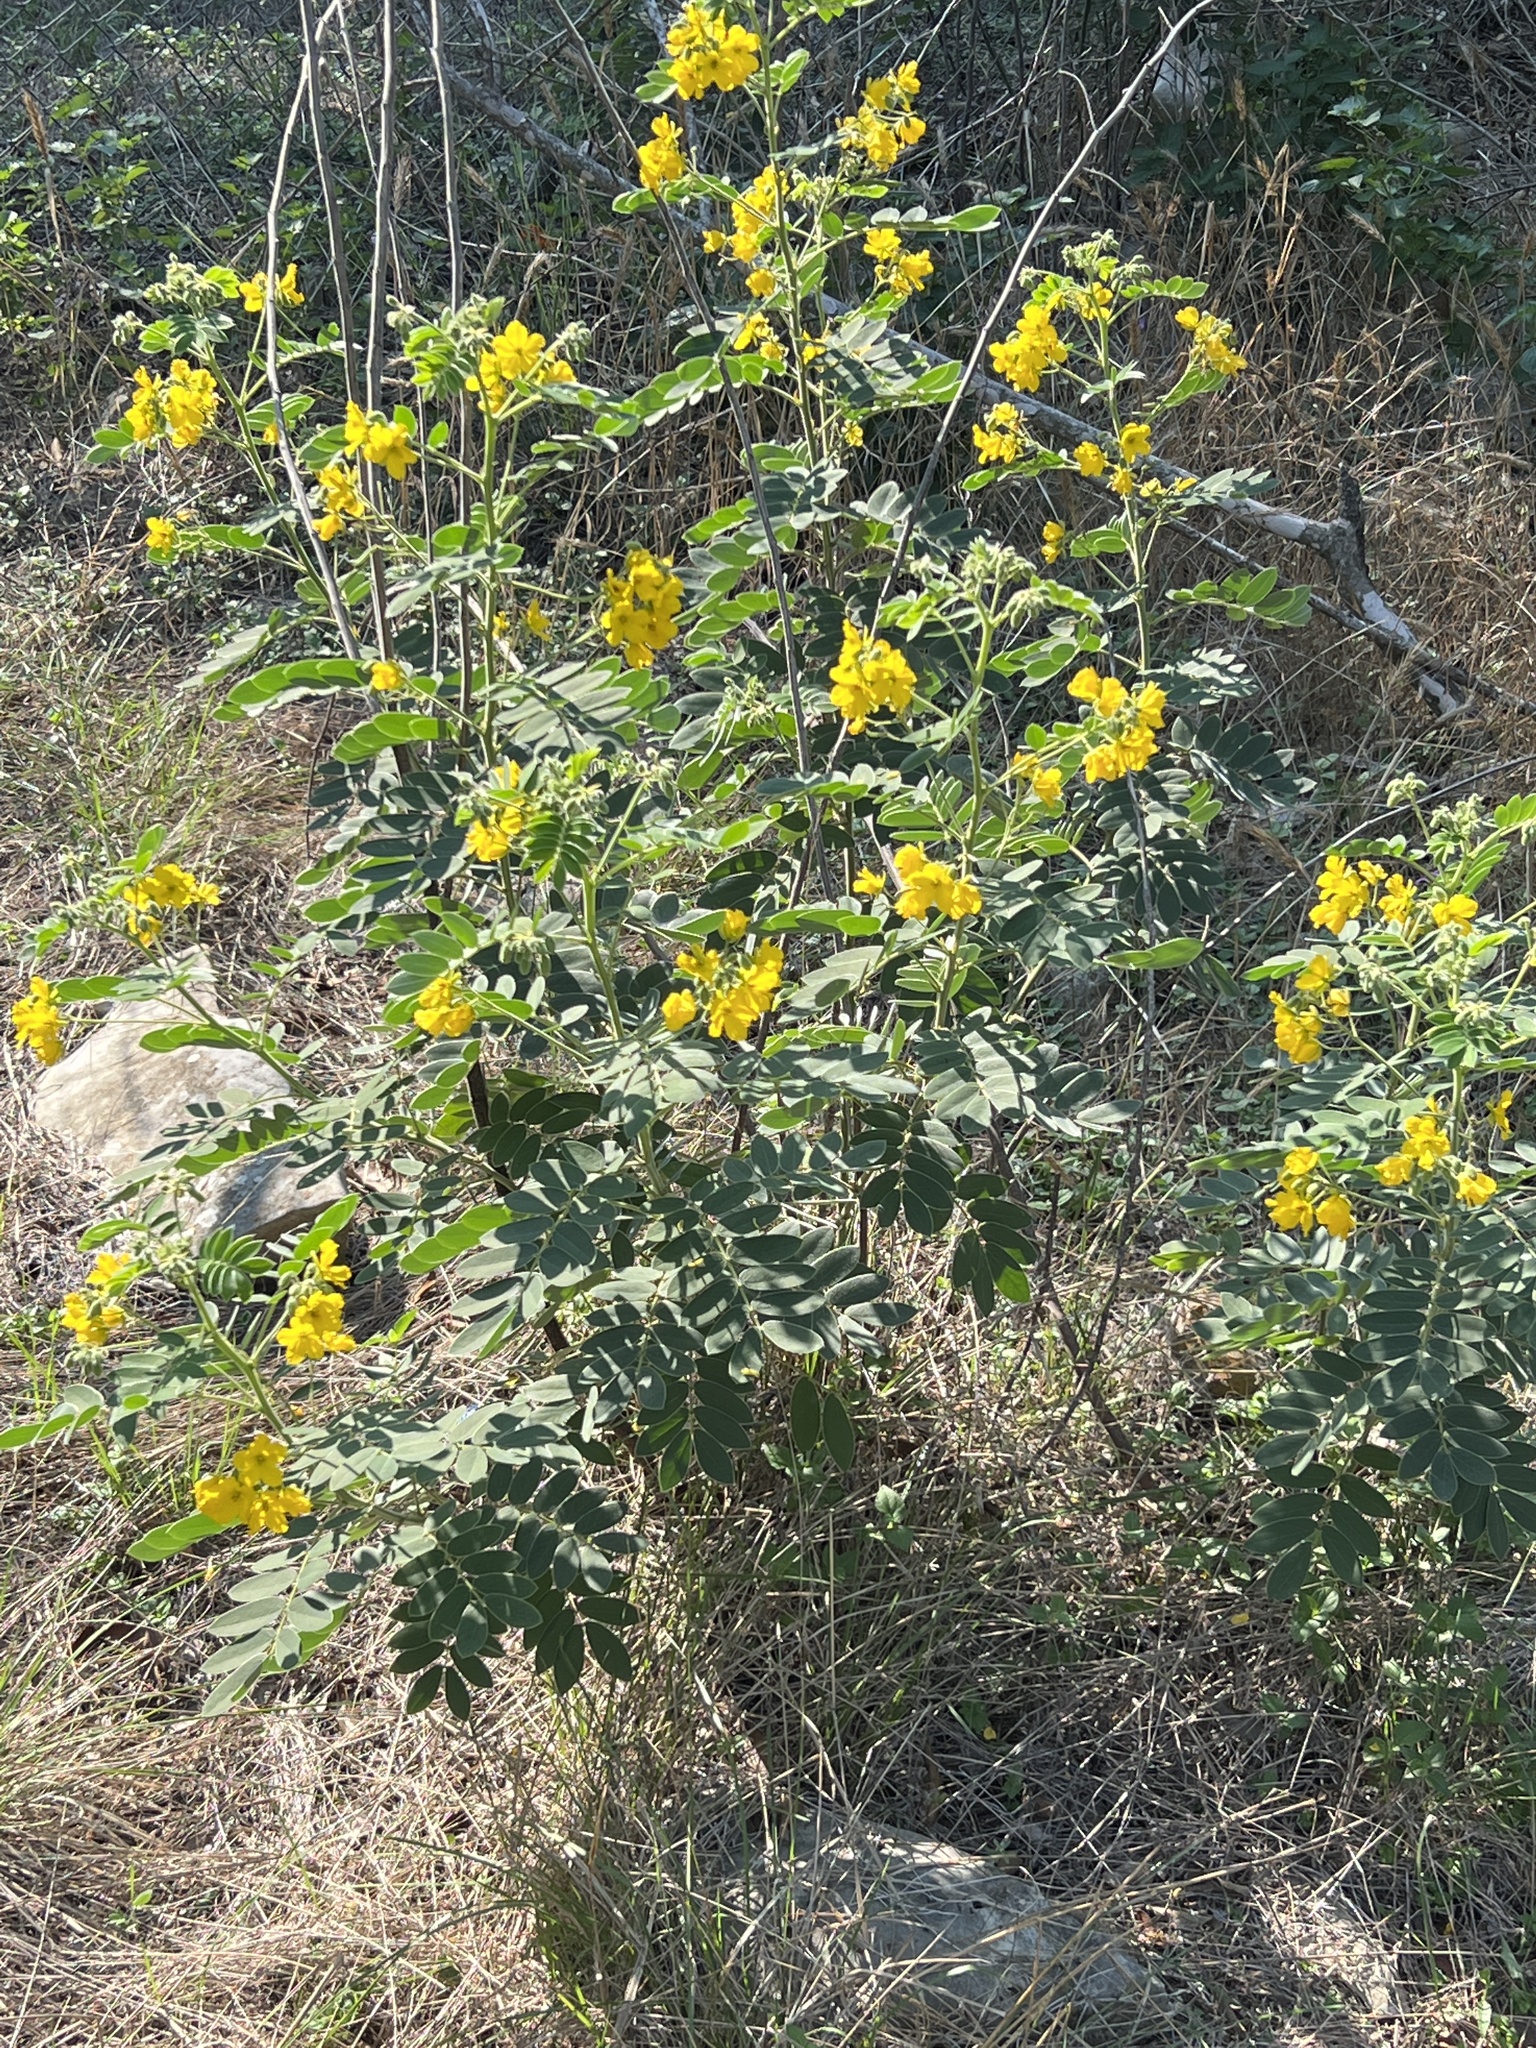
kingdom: Plantae
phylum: Tracheophyta
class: Magnoliopsida
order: Fabales
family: Fabaceae
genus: Senna
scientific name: Senna lindheimeriana
